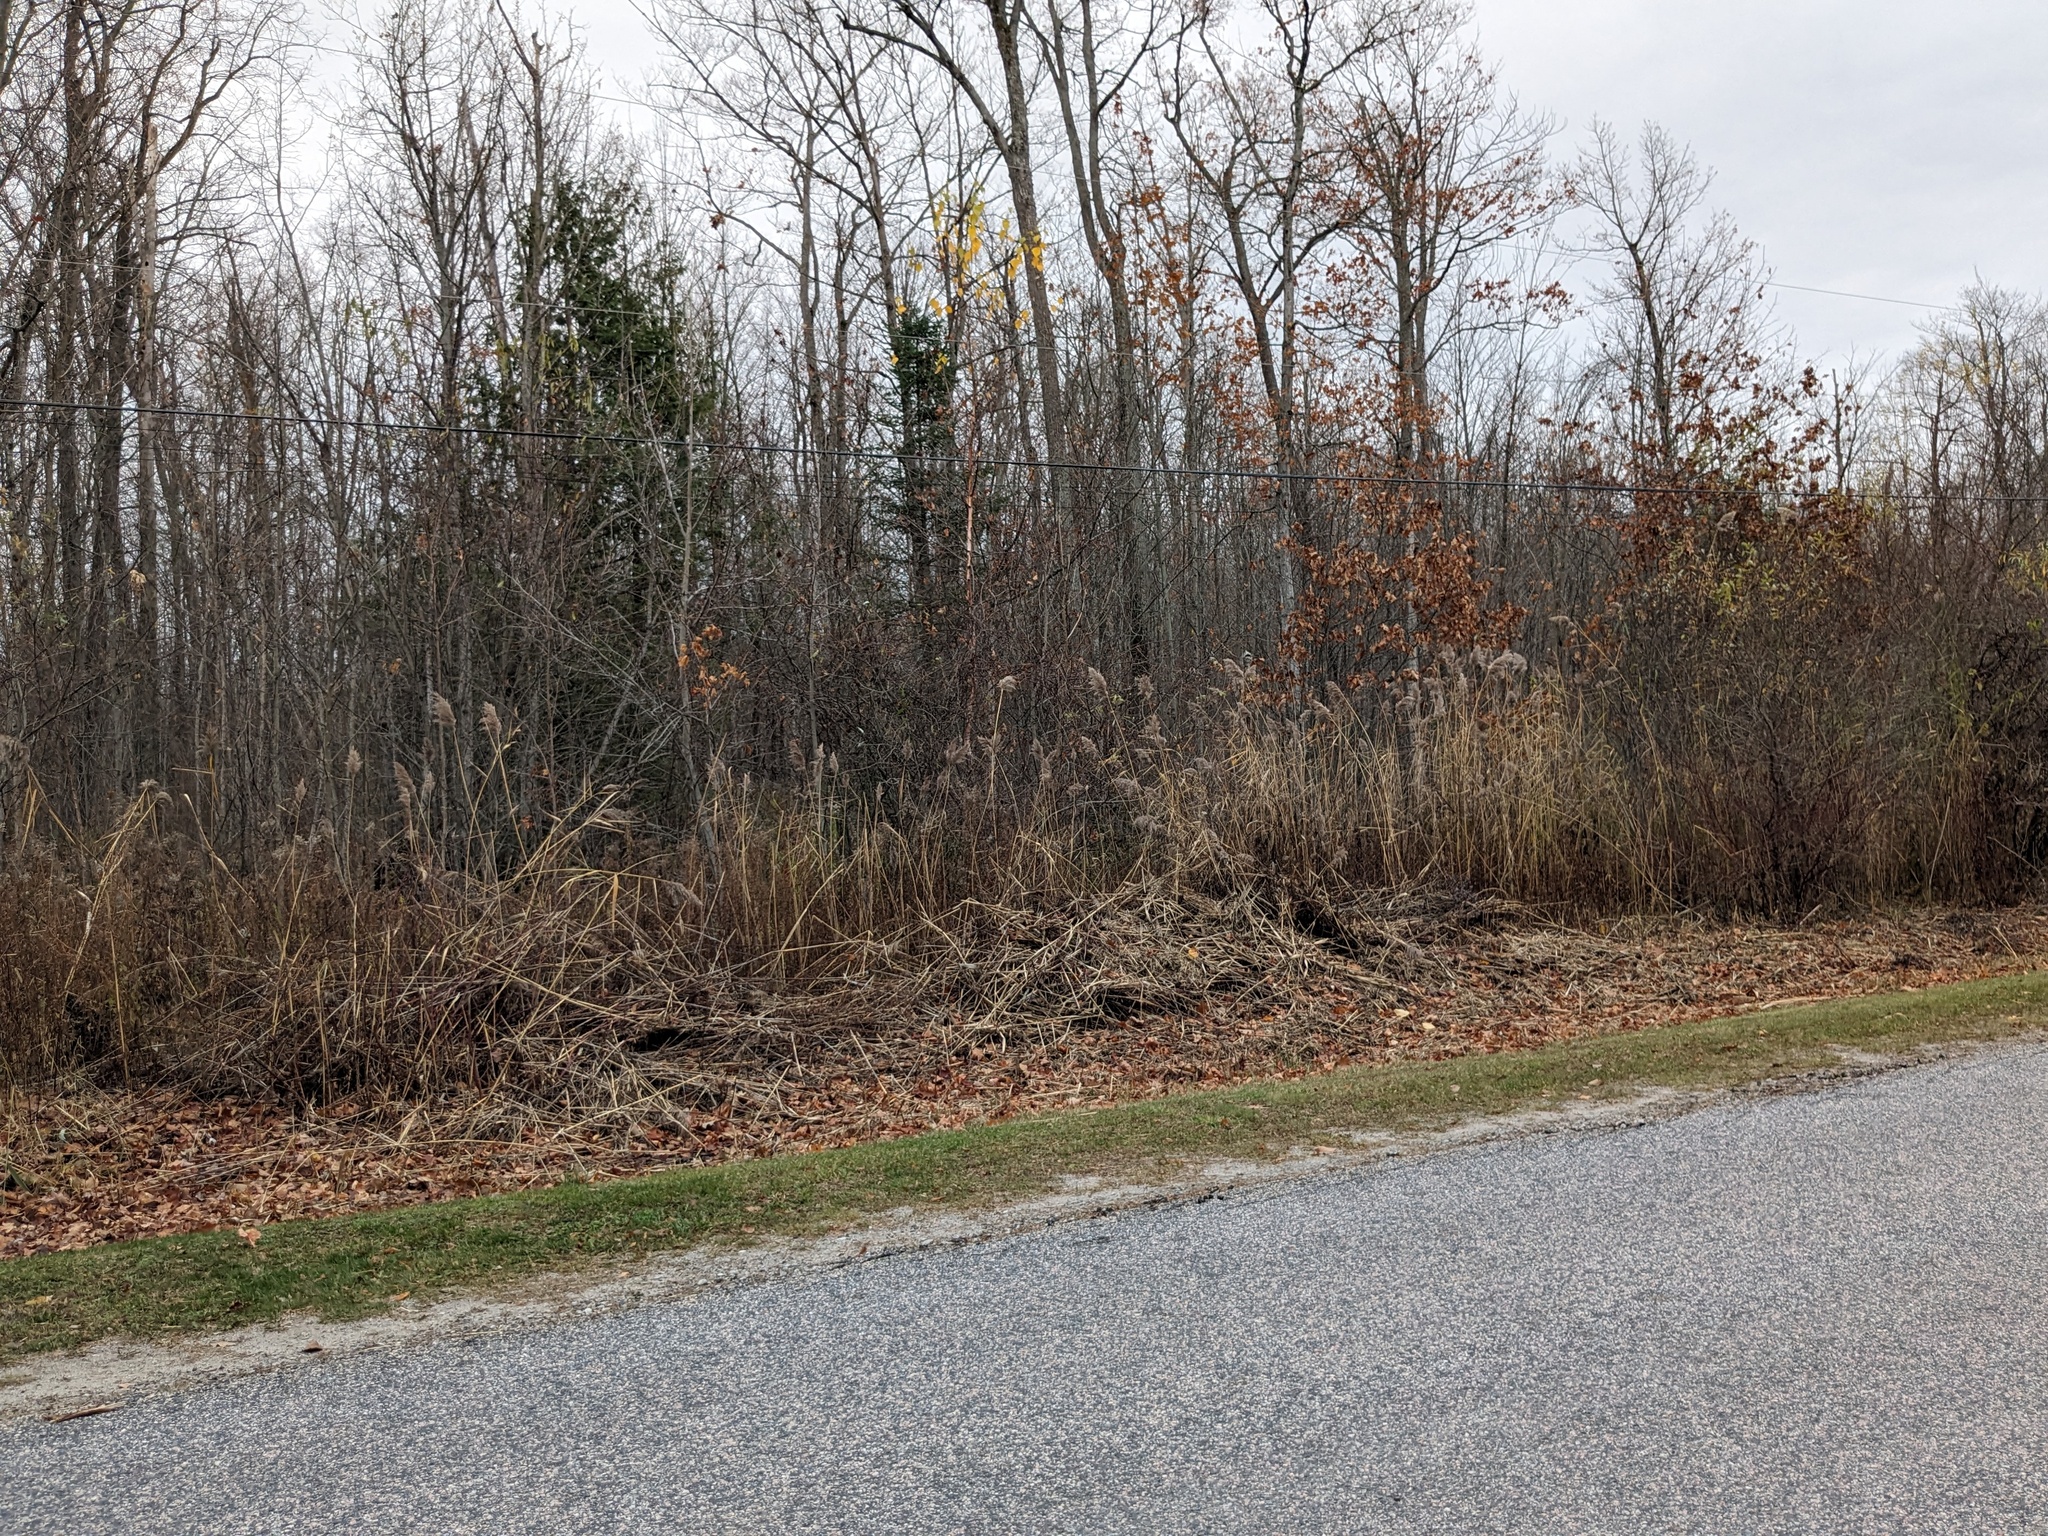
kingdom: Plantae
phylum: Tracheophyta
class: Liliopsida
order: Poales
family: Poaceae
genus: Phragmites
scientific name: Phragmites australis
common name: Common reed
